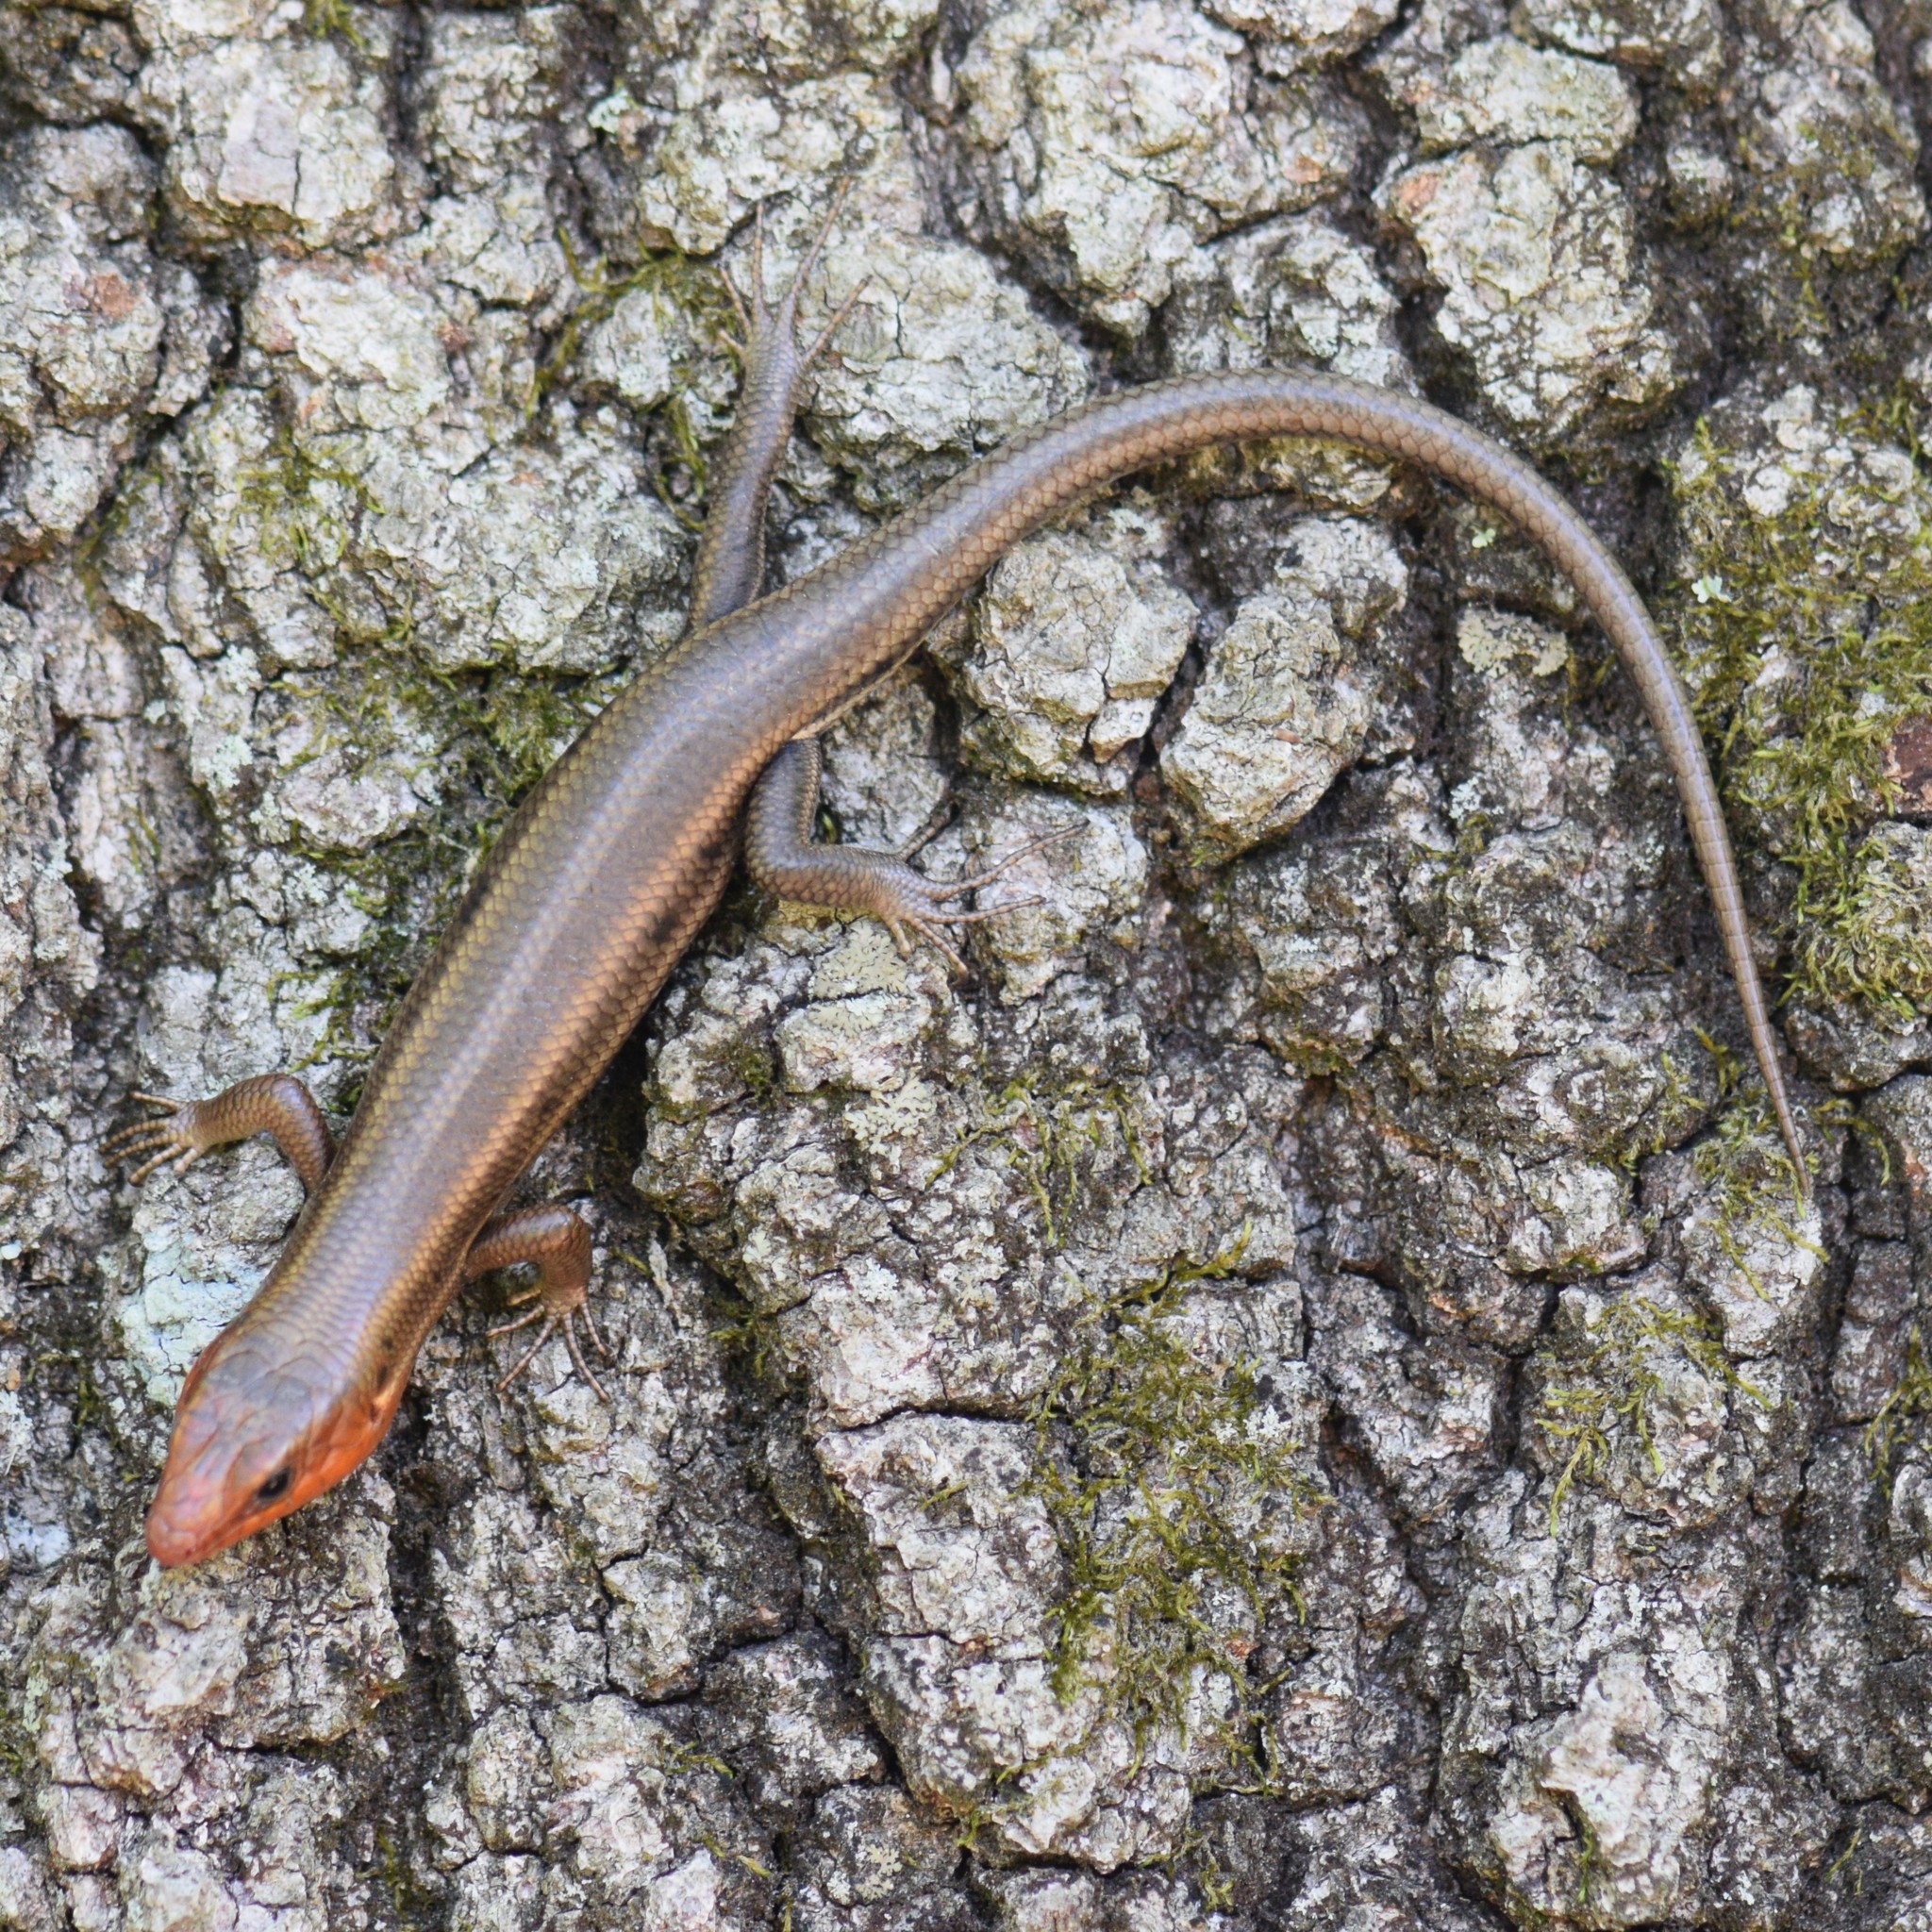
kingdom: Animalia
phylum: Chordata
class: Squamata
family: Scincidae
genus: Plestiodon
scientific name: Plestiodon fasciatus
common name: Five-lined skink
